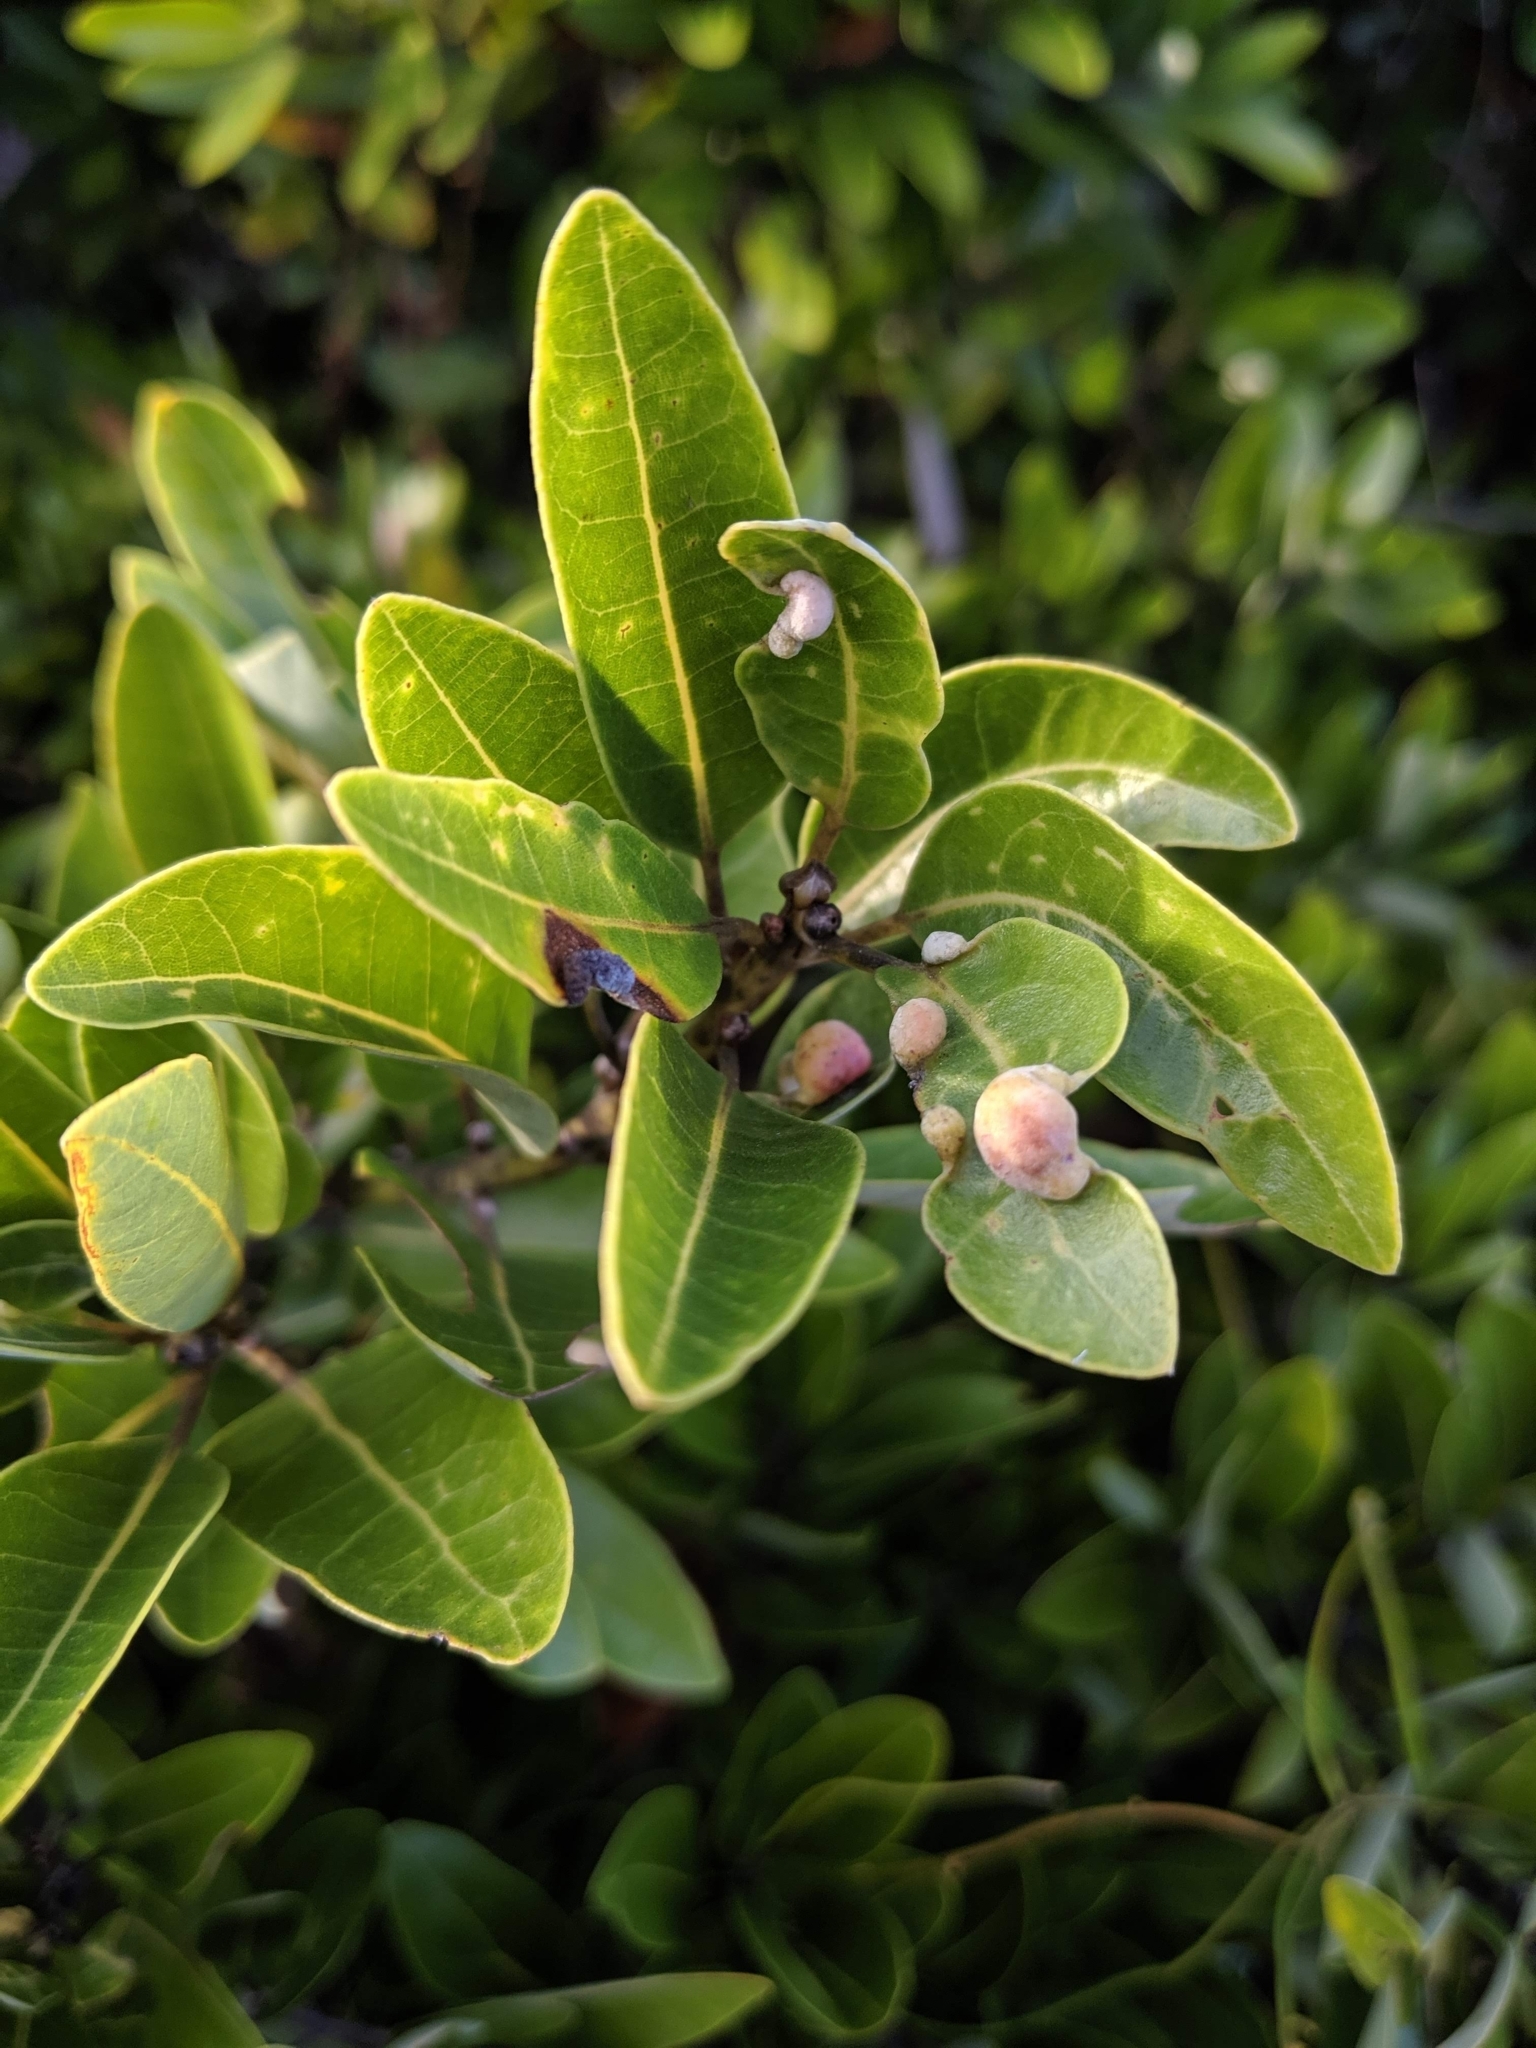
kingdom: Plantae
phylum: Tracheophyta
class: Magnoliopsida
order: Laurales
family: Lauraceae
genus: Persea
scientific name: Persea borbonia
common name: Redbay
